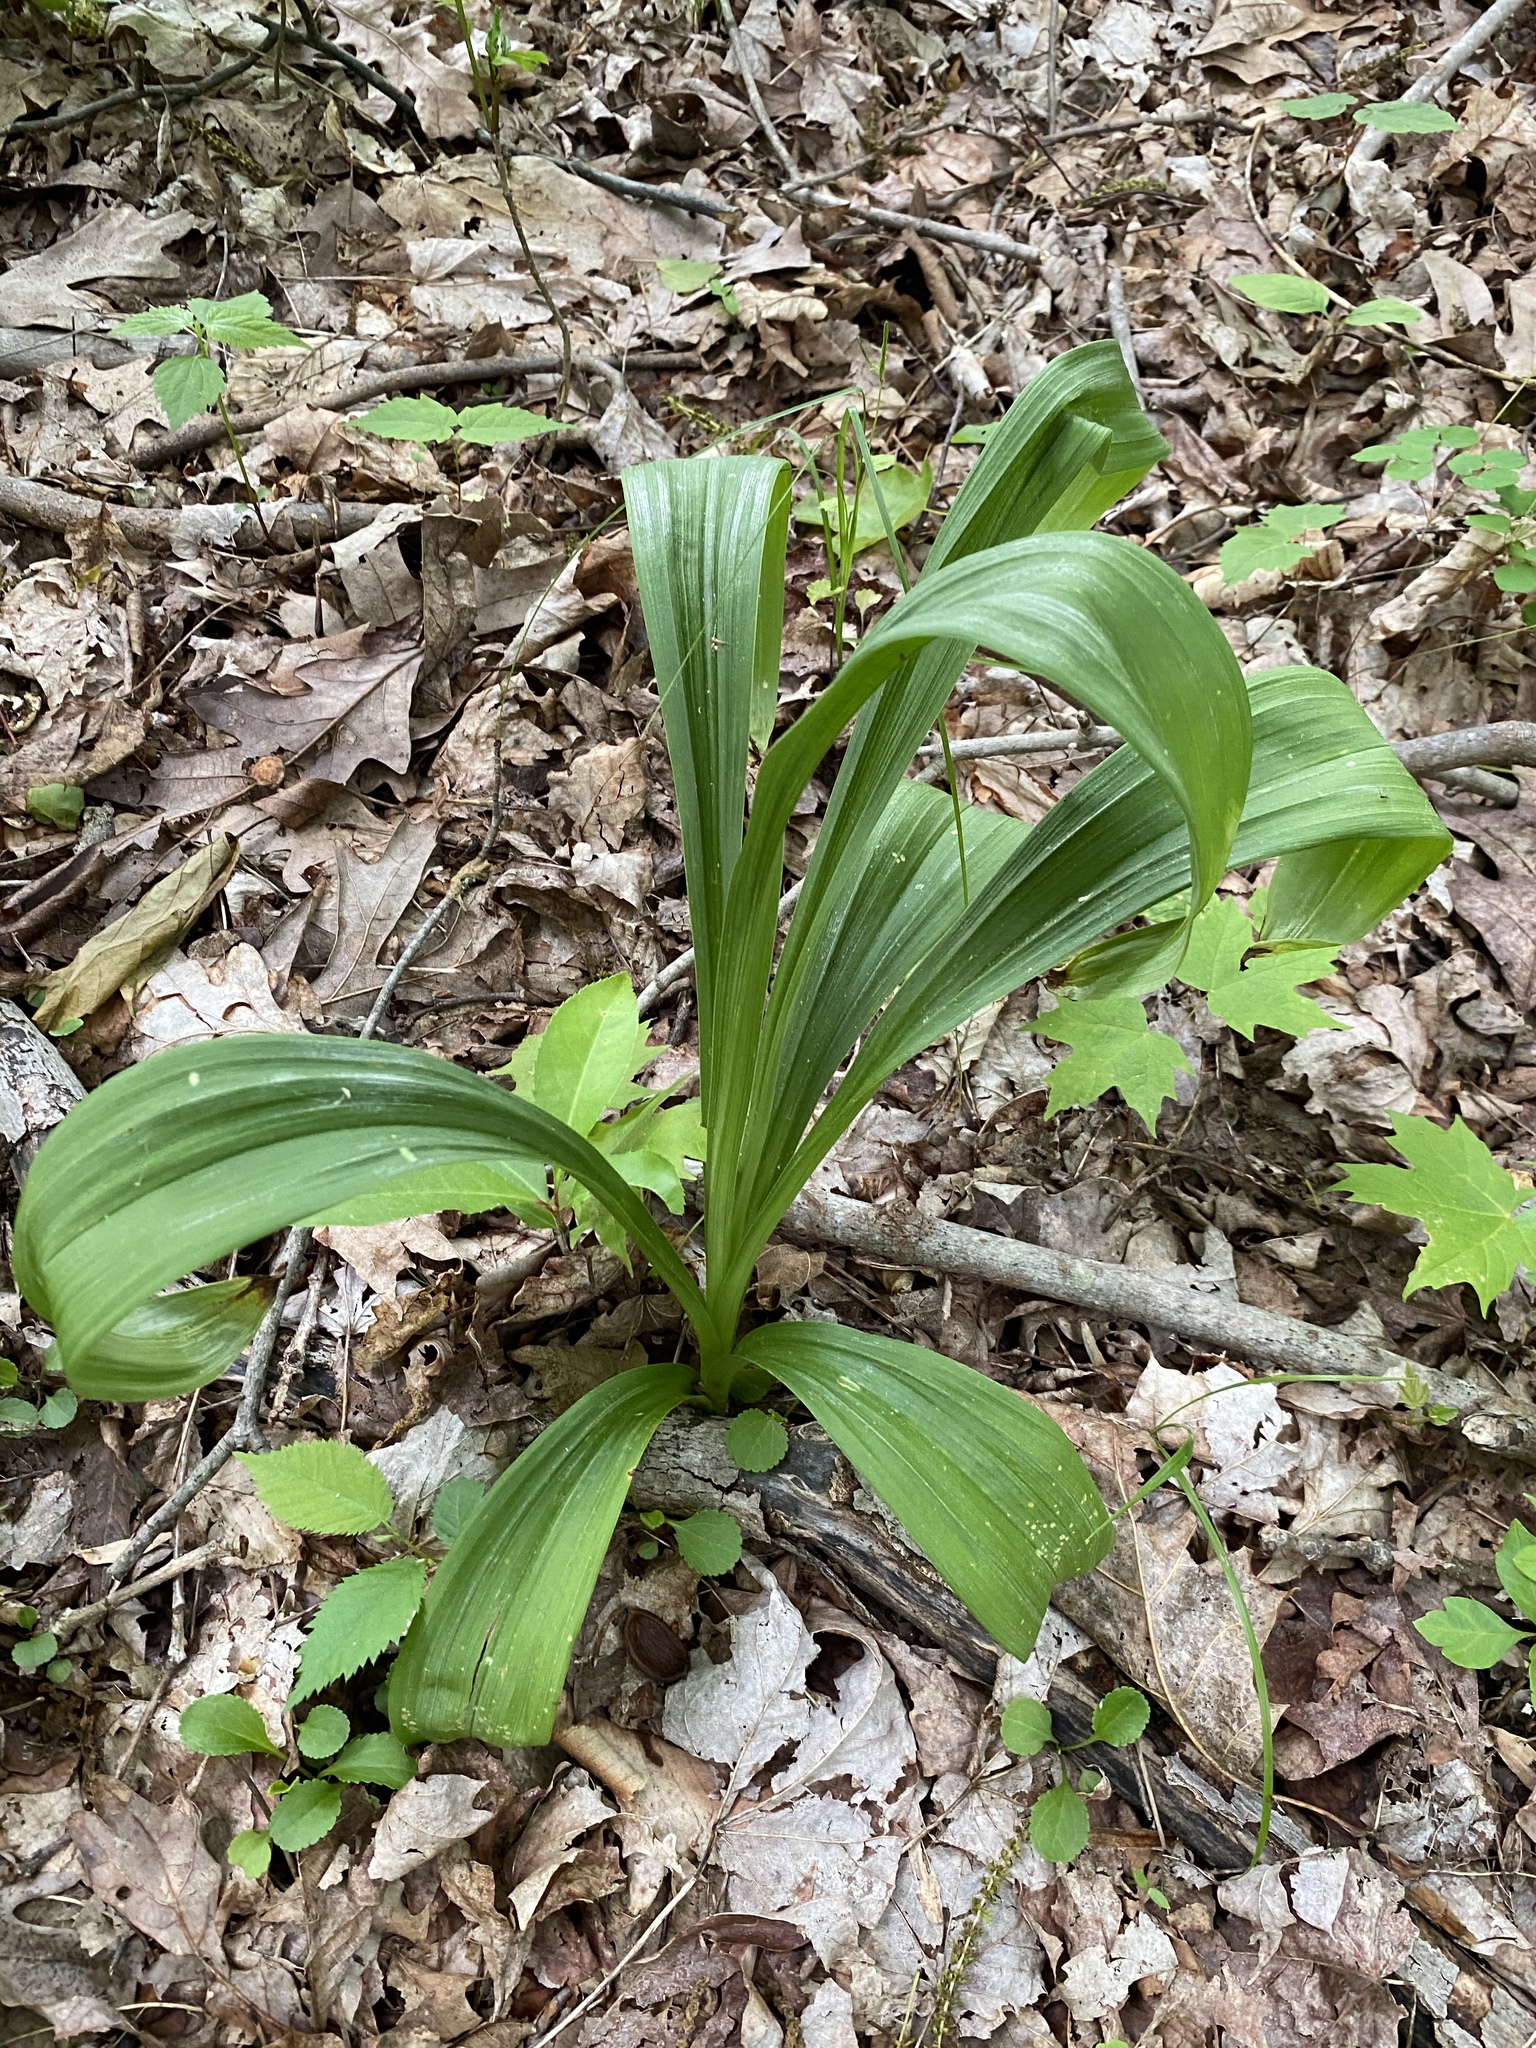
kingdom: Plantae
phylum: Tracheophyta
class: Liliopsida
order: Liliales
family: Melanthiaceae
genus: Veratrum
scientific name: Veratrum hybridum
